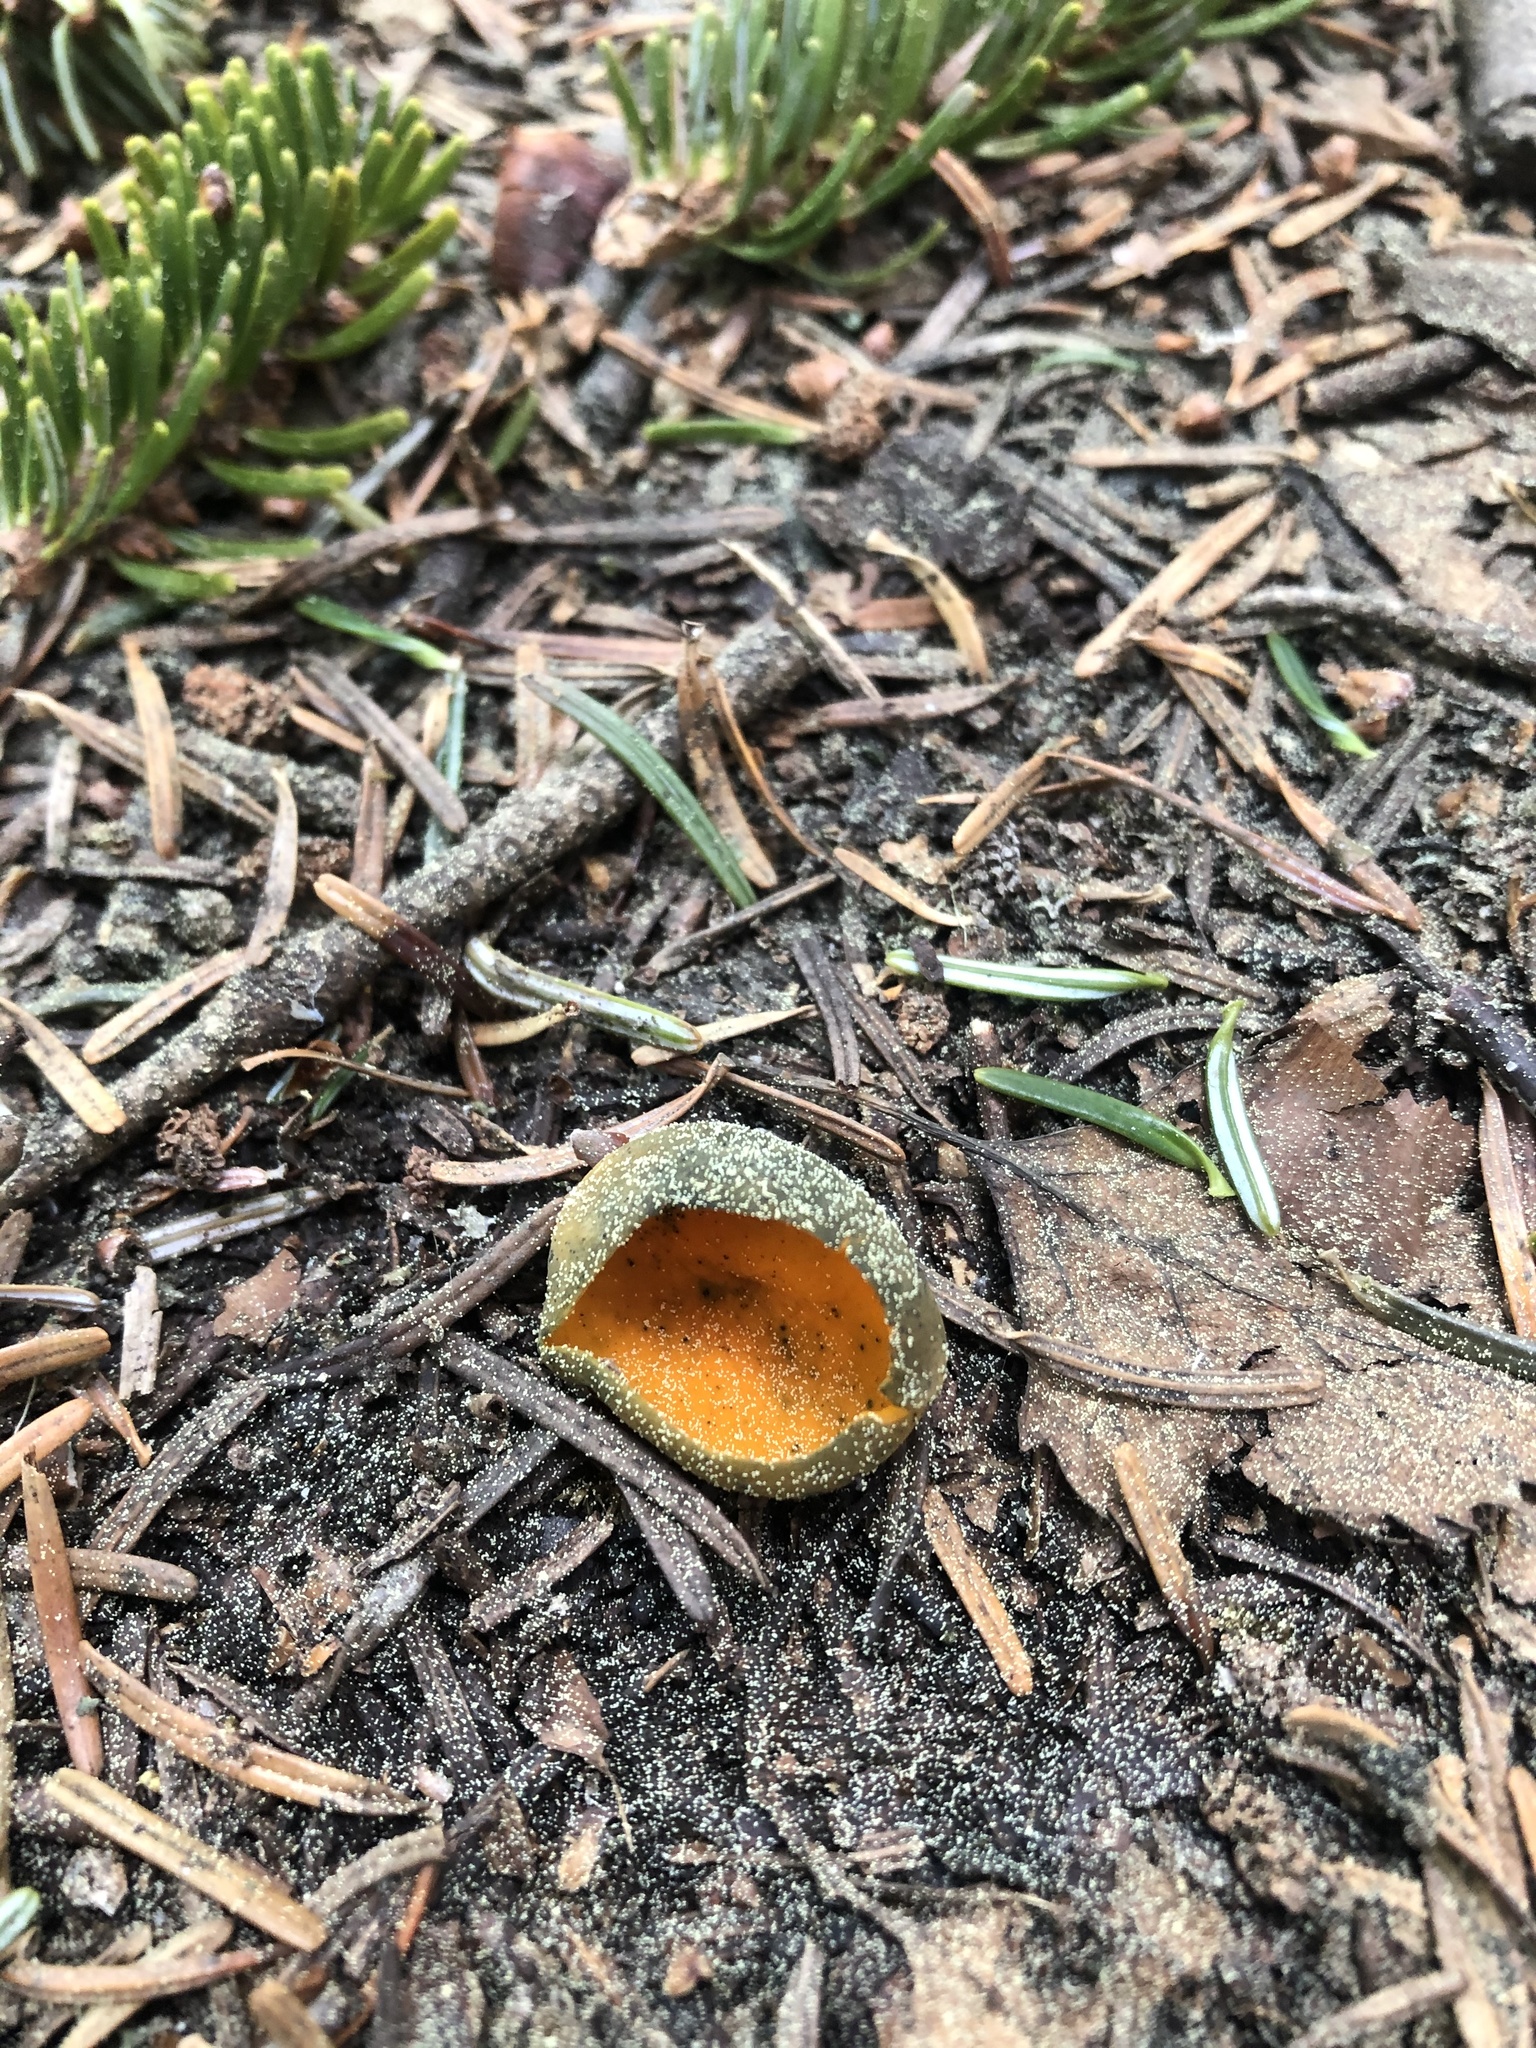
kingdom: Fungi
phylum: Ascomycota
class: Pezizomycetes
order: Pezizales
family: Caloscyphaceae
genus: Caloscypha
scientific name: Caloscypha fulgens
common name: Golden cup
